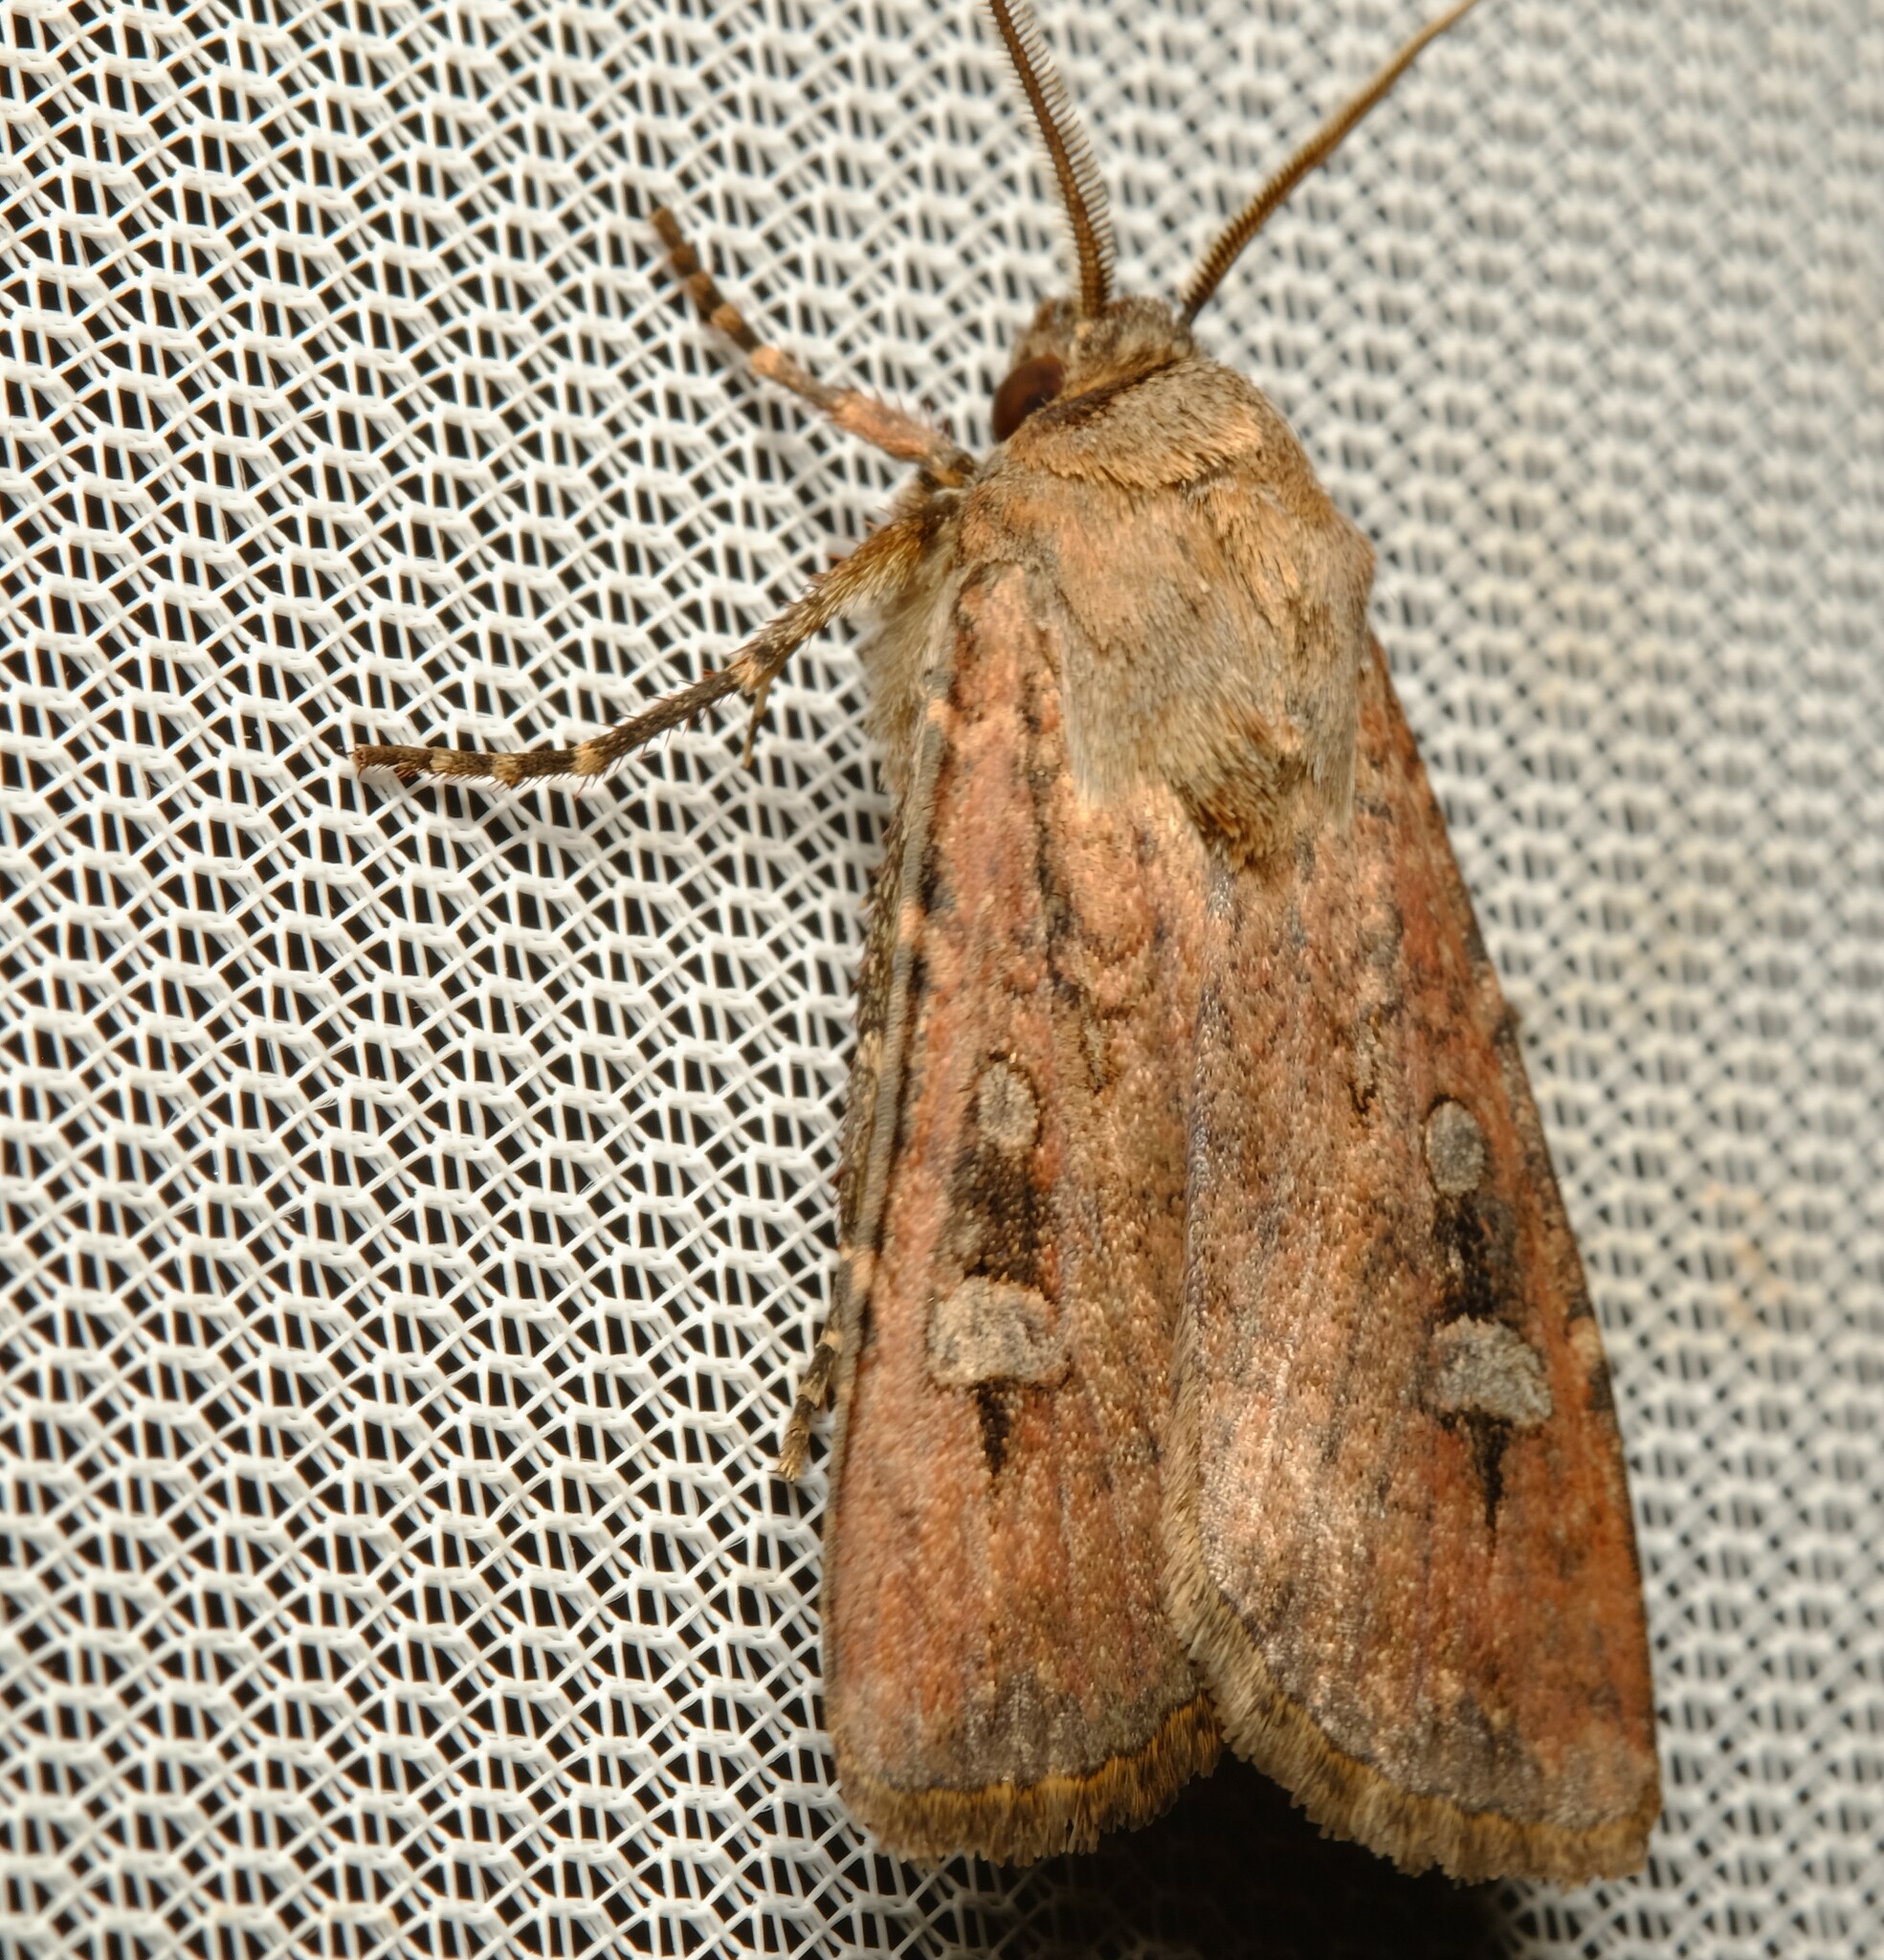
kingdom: Animalia
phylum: Arthropoda
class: Insecta
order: Lepidoptera
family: Noctuidae
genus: Agrotis
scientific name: Agrotis infusa
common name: Bogong moth
